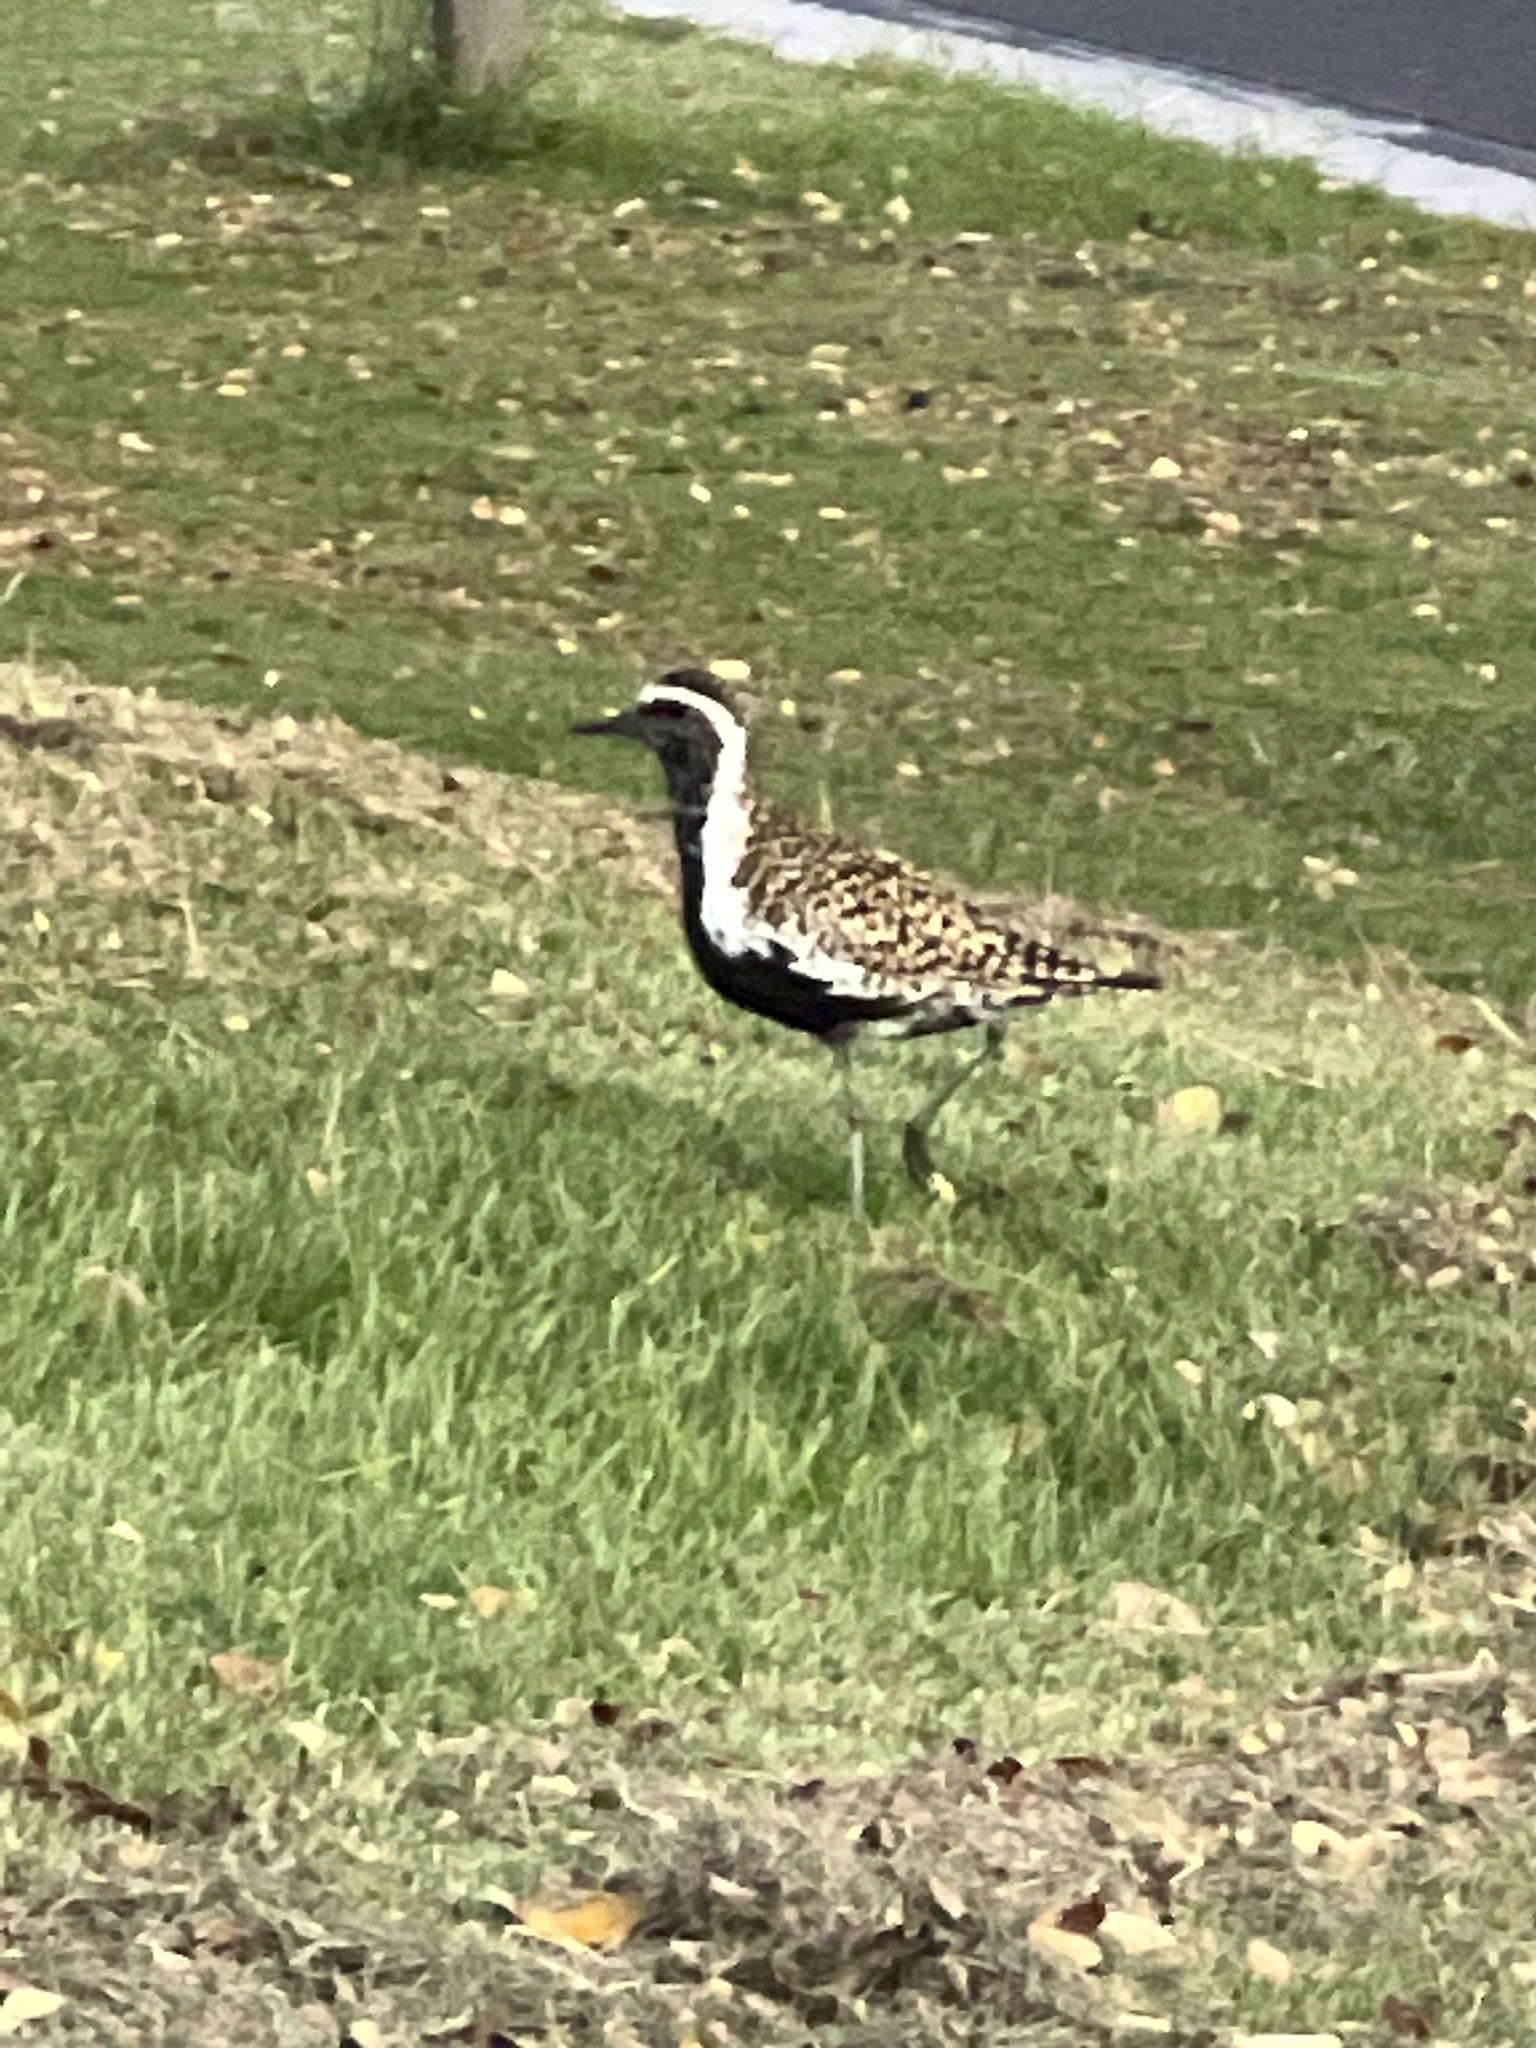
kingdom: Animalia
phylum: Chordata
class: Aves
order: Charadriiformes
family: Charadriidae
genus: Pluvialis
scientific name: Pluvialis fulva
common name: Pacific golden plover
